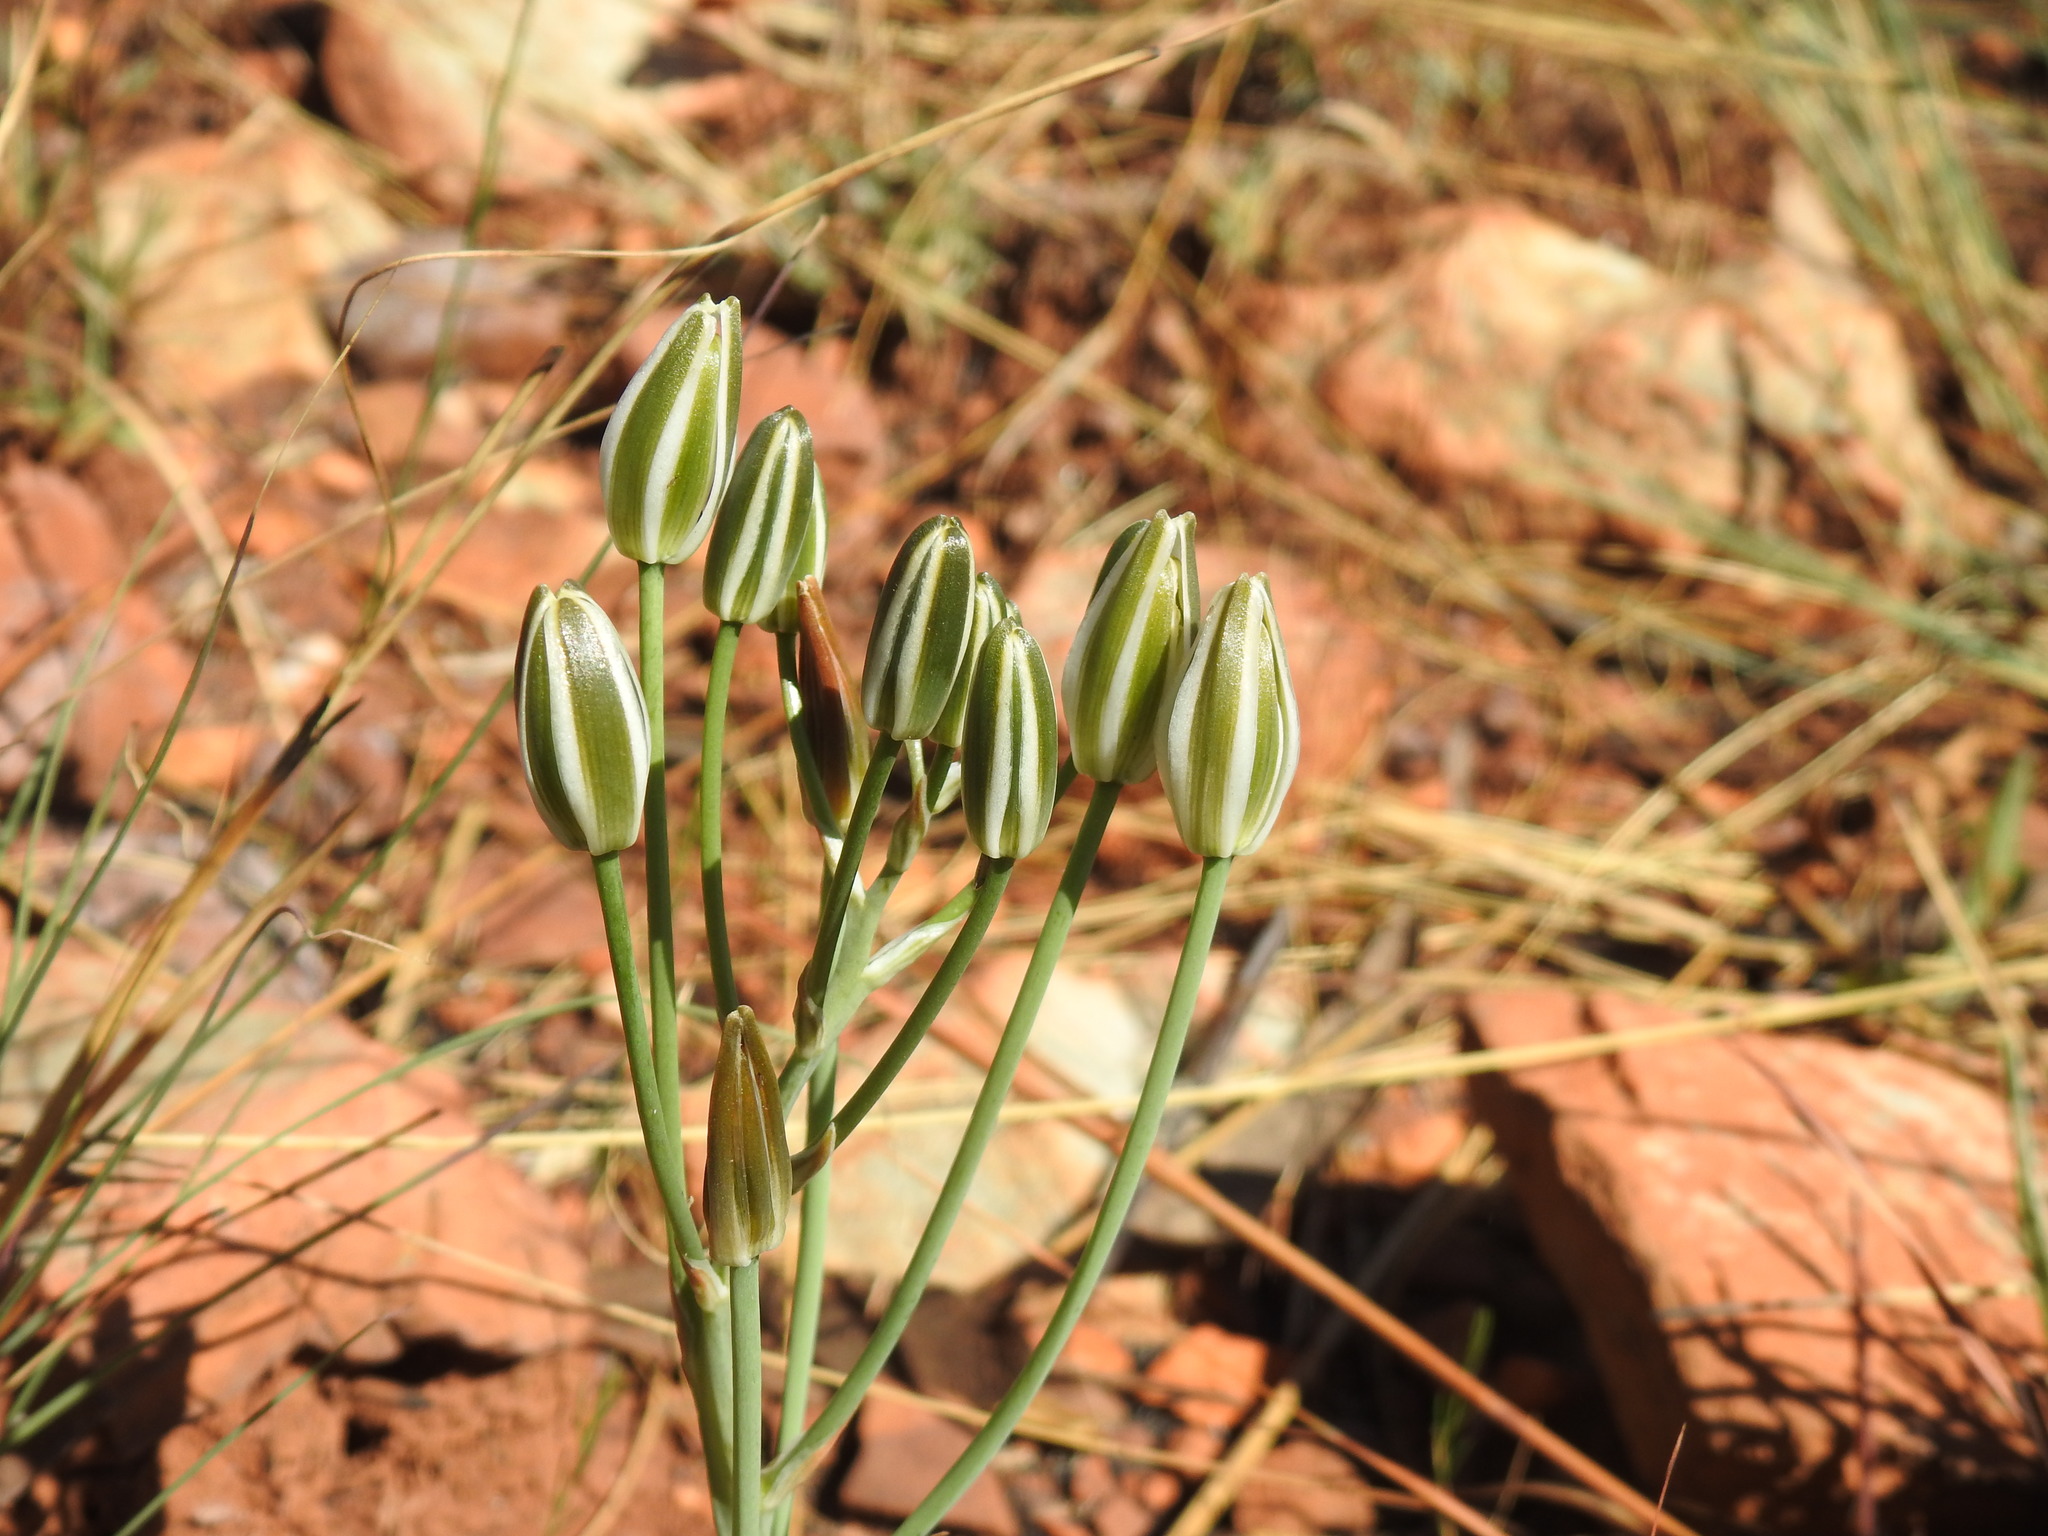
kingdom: Plantae
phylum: Tracheophyta
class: Liliopsida
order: Asparagales
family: Asparagaceae
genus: Albuca
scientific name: Albuca setosa
